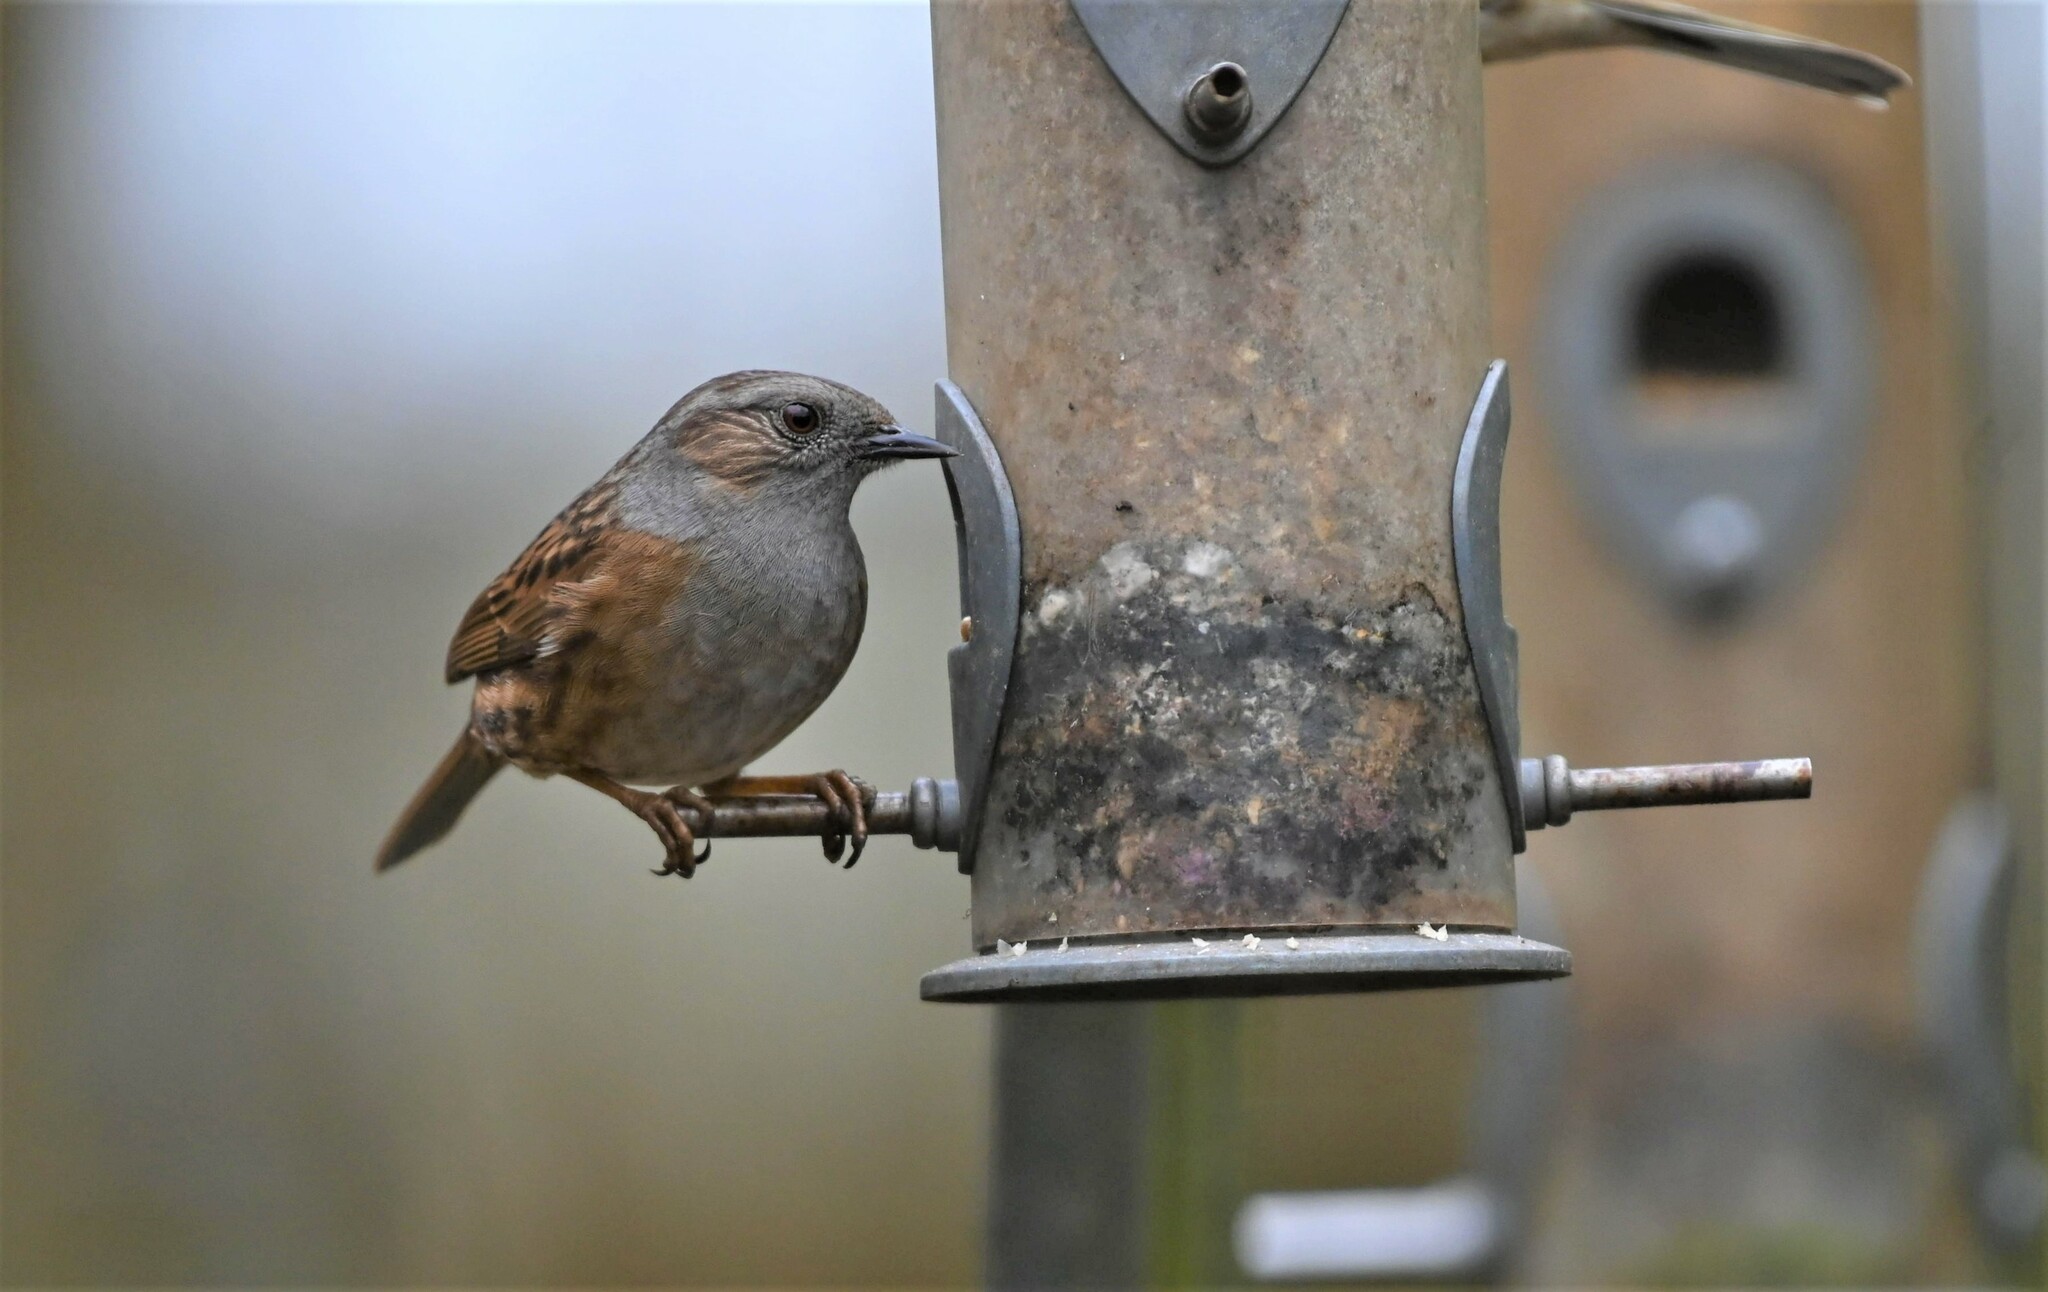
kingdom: Animalia
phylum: Chordata
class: Aves
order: Passeriformes
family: Prunellidae
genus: Prunella
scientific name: Prunella modularis
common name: Dunnock
